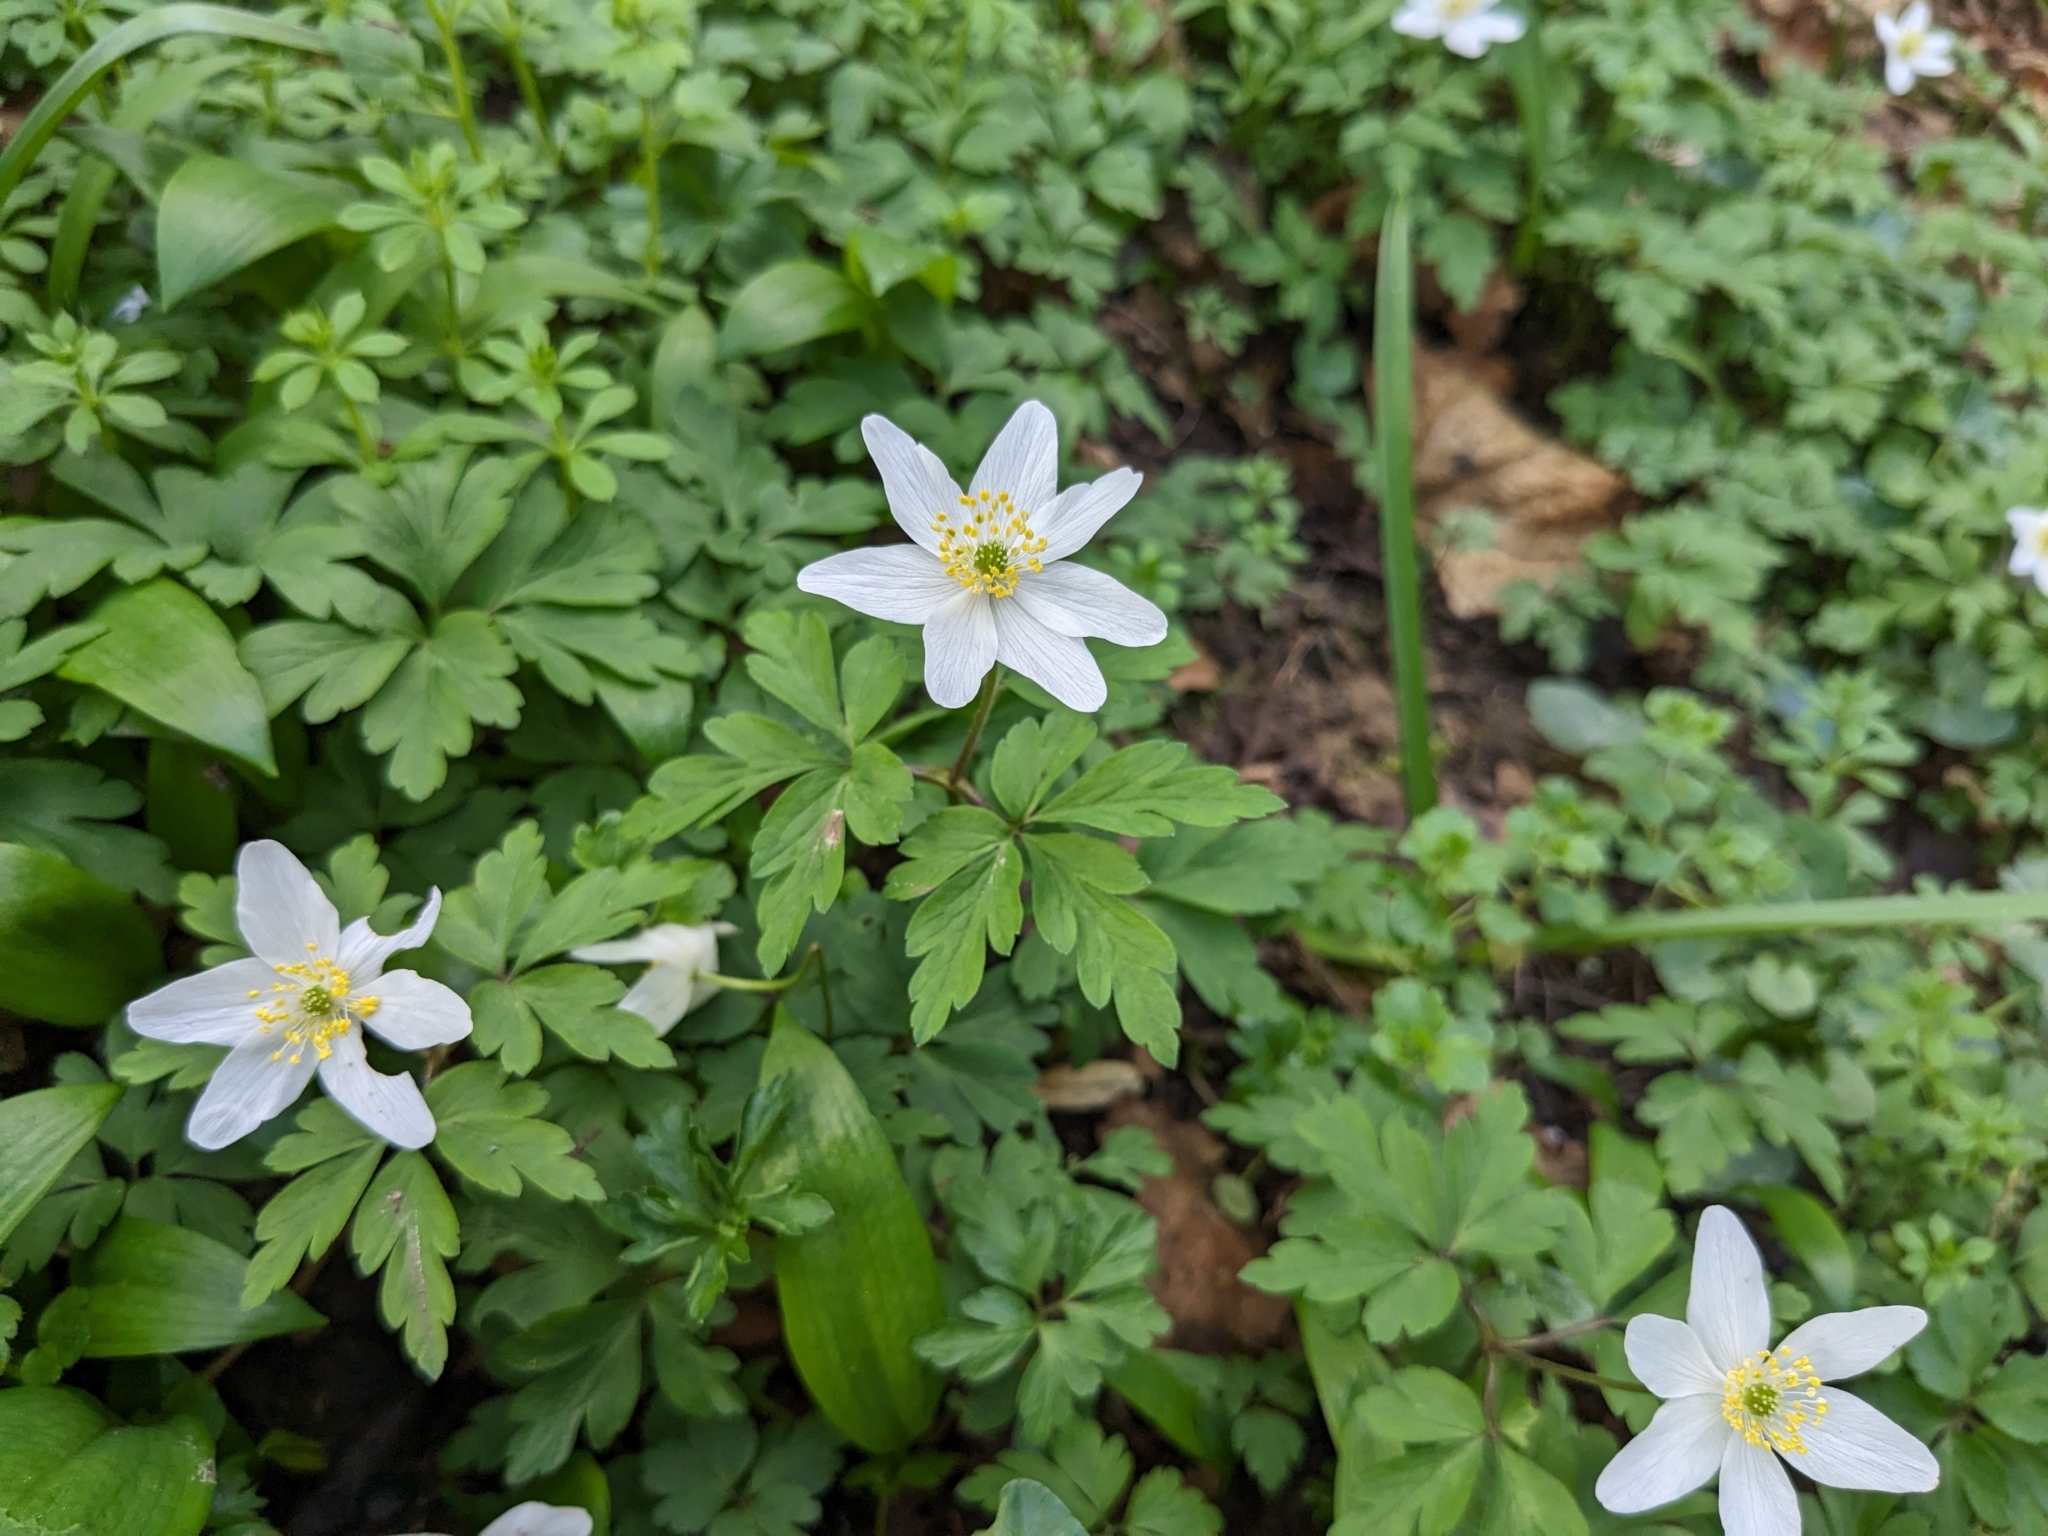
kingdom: Plantae
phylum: Tracheophyta
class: Magnoliopsida
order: Ranunculales
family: Ranunculaceae
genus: Anemone
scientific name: Anemone nemorosa
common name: Wood anemone
